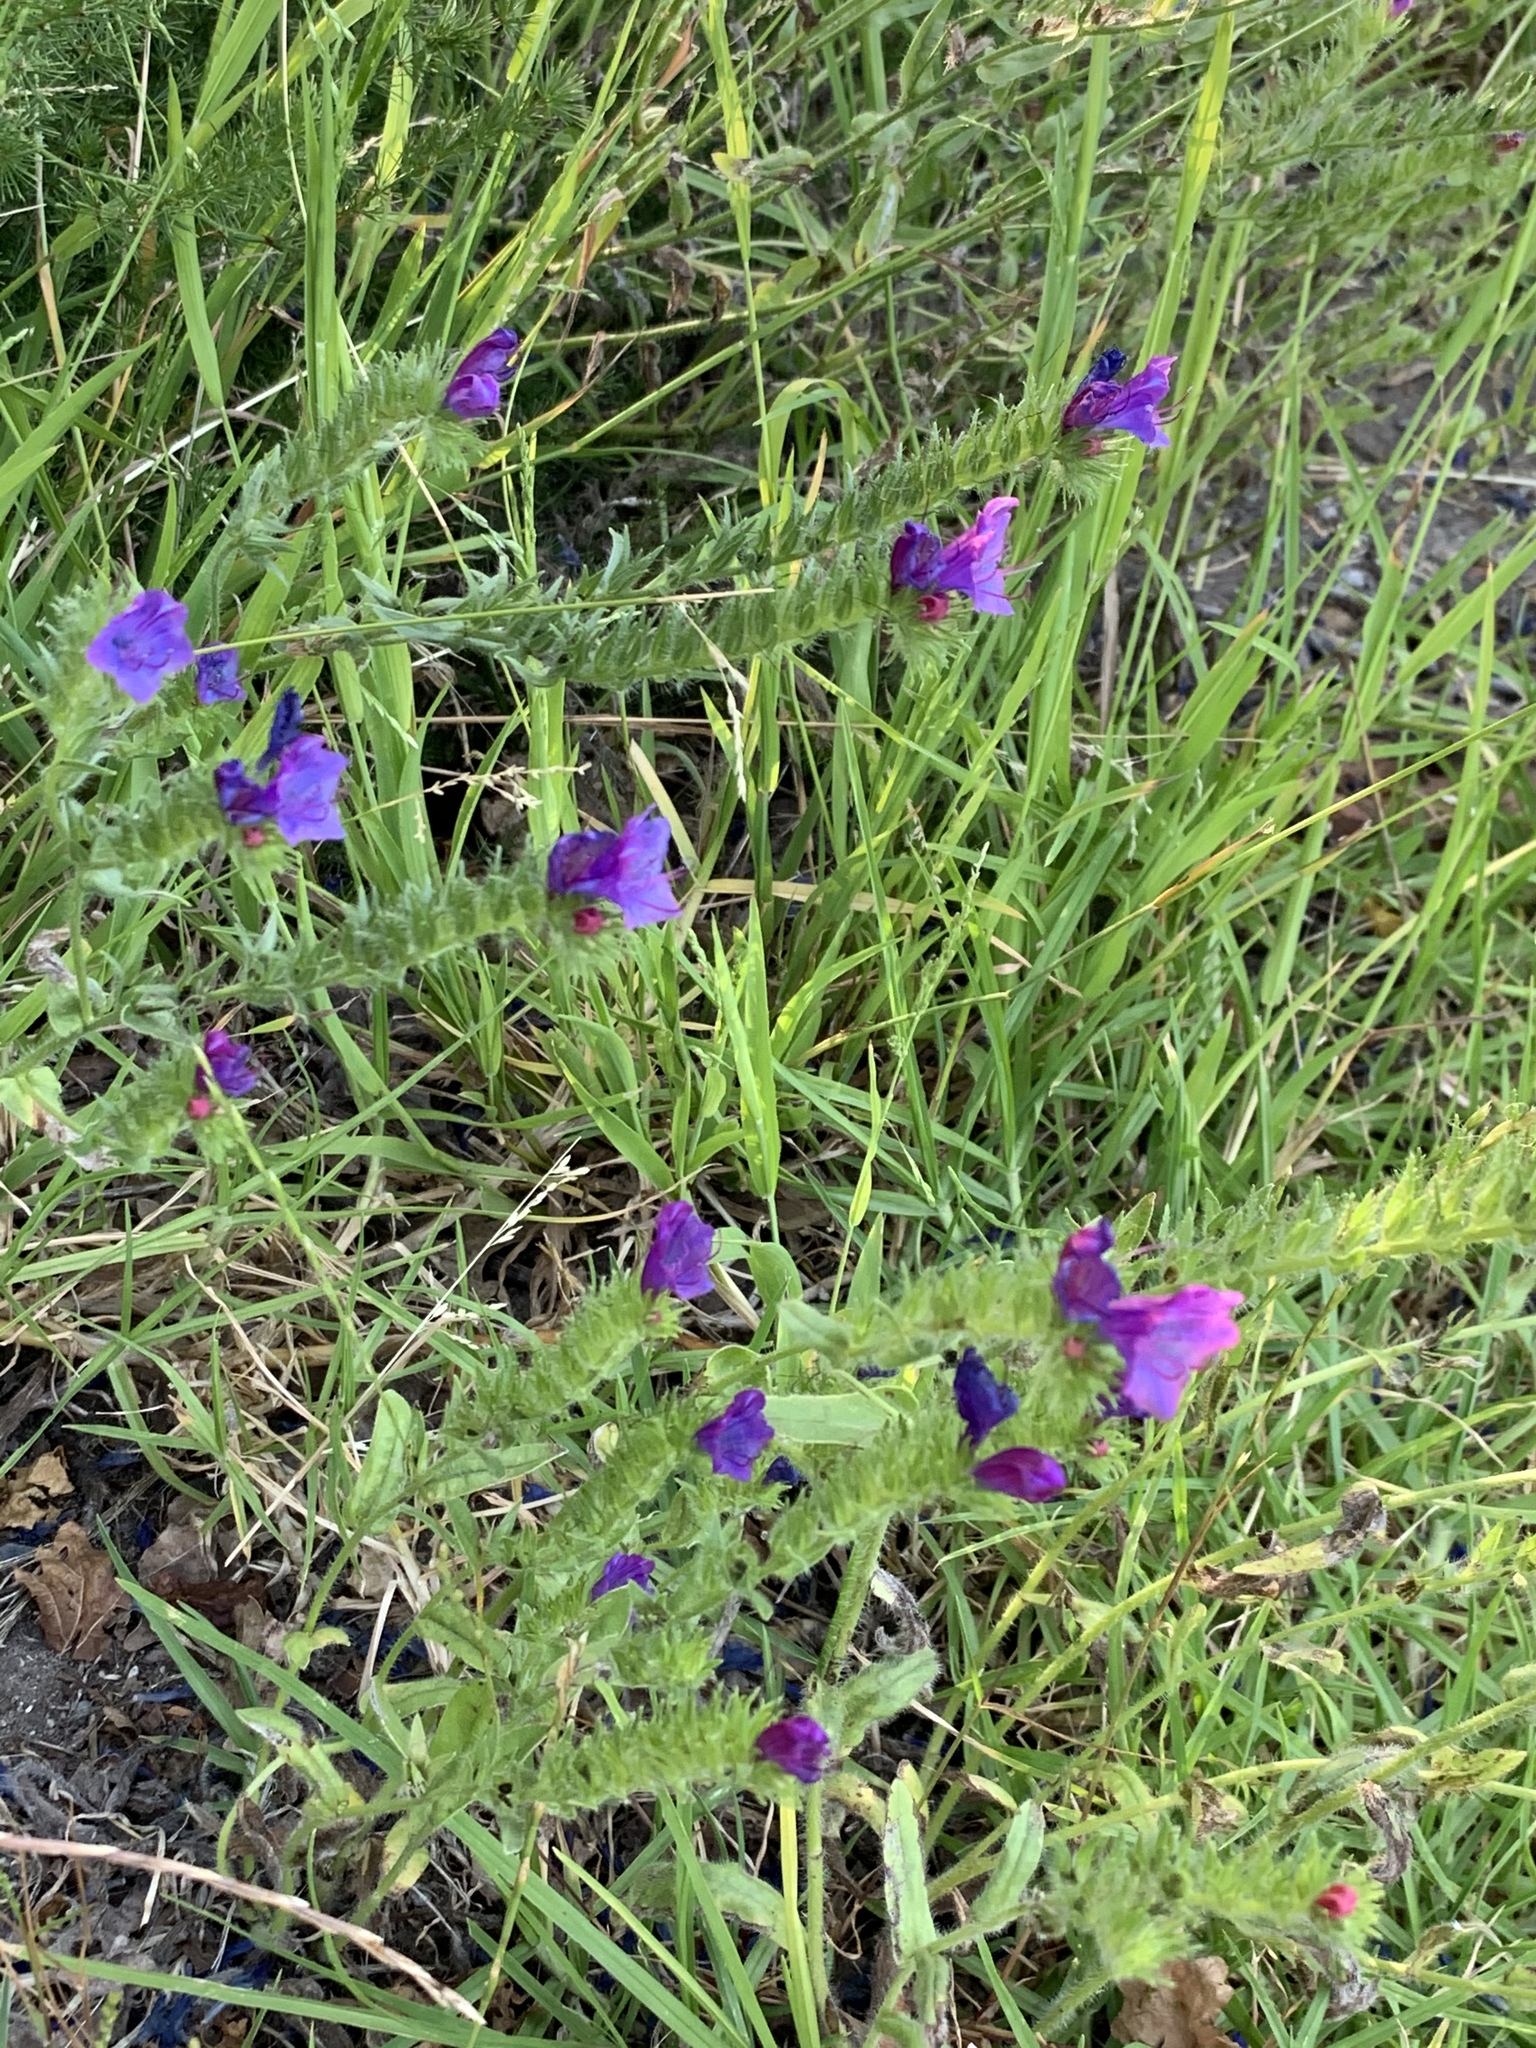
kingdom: Plantae
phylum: Tracheophyta
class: Magnoliopsida
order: Boraginales
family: Boraginaceae
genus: Echium
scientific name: Echium plantagineum
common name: Purple viper's-bugloss
